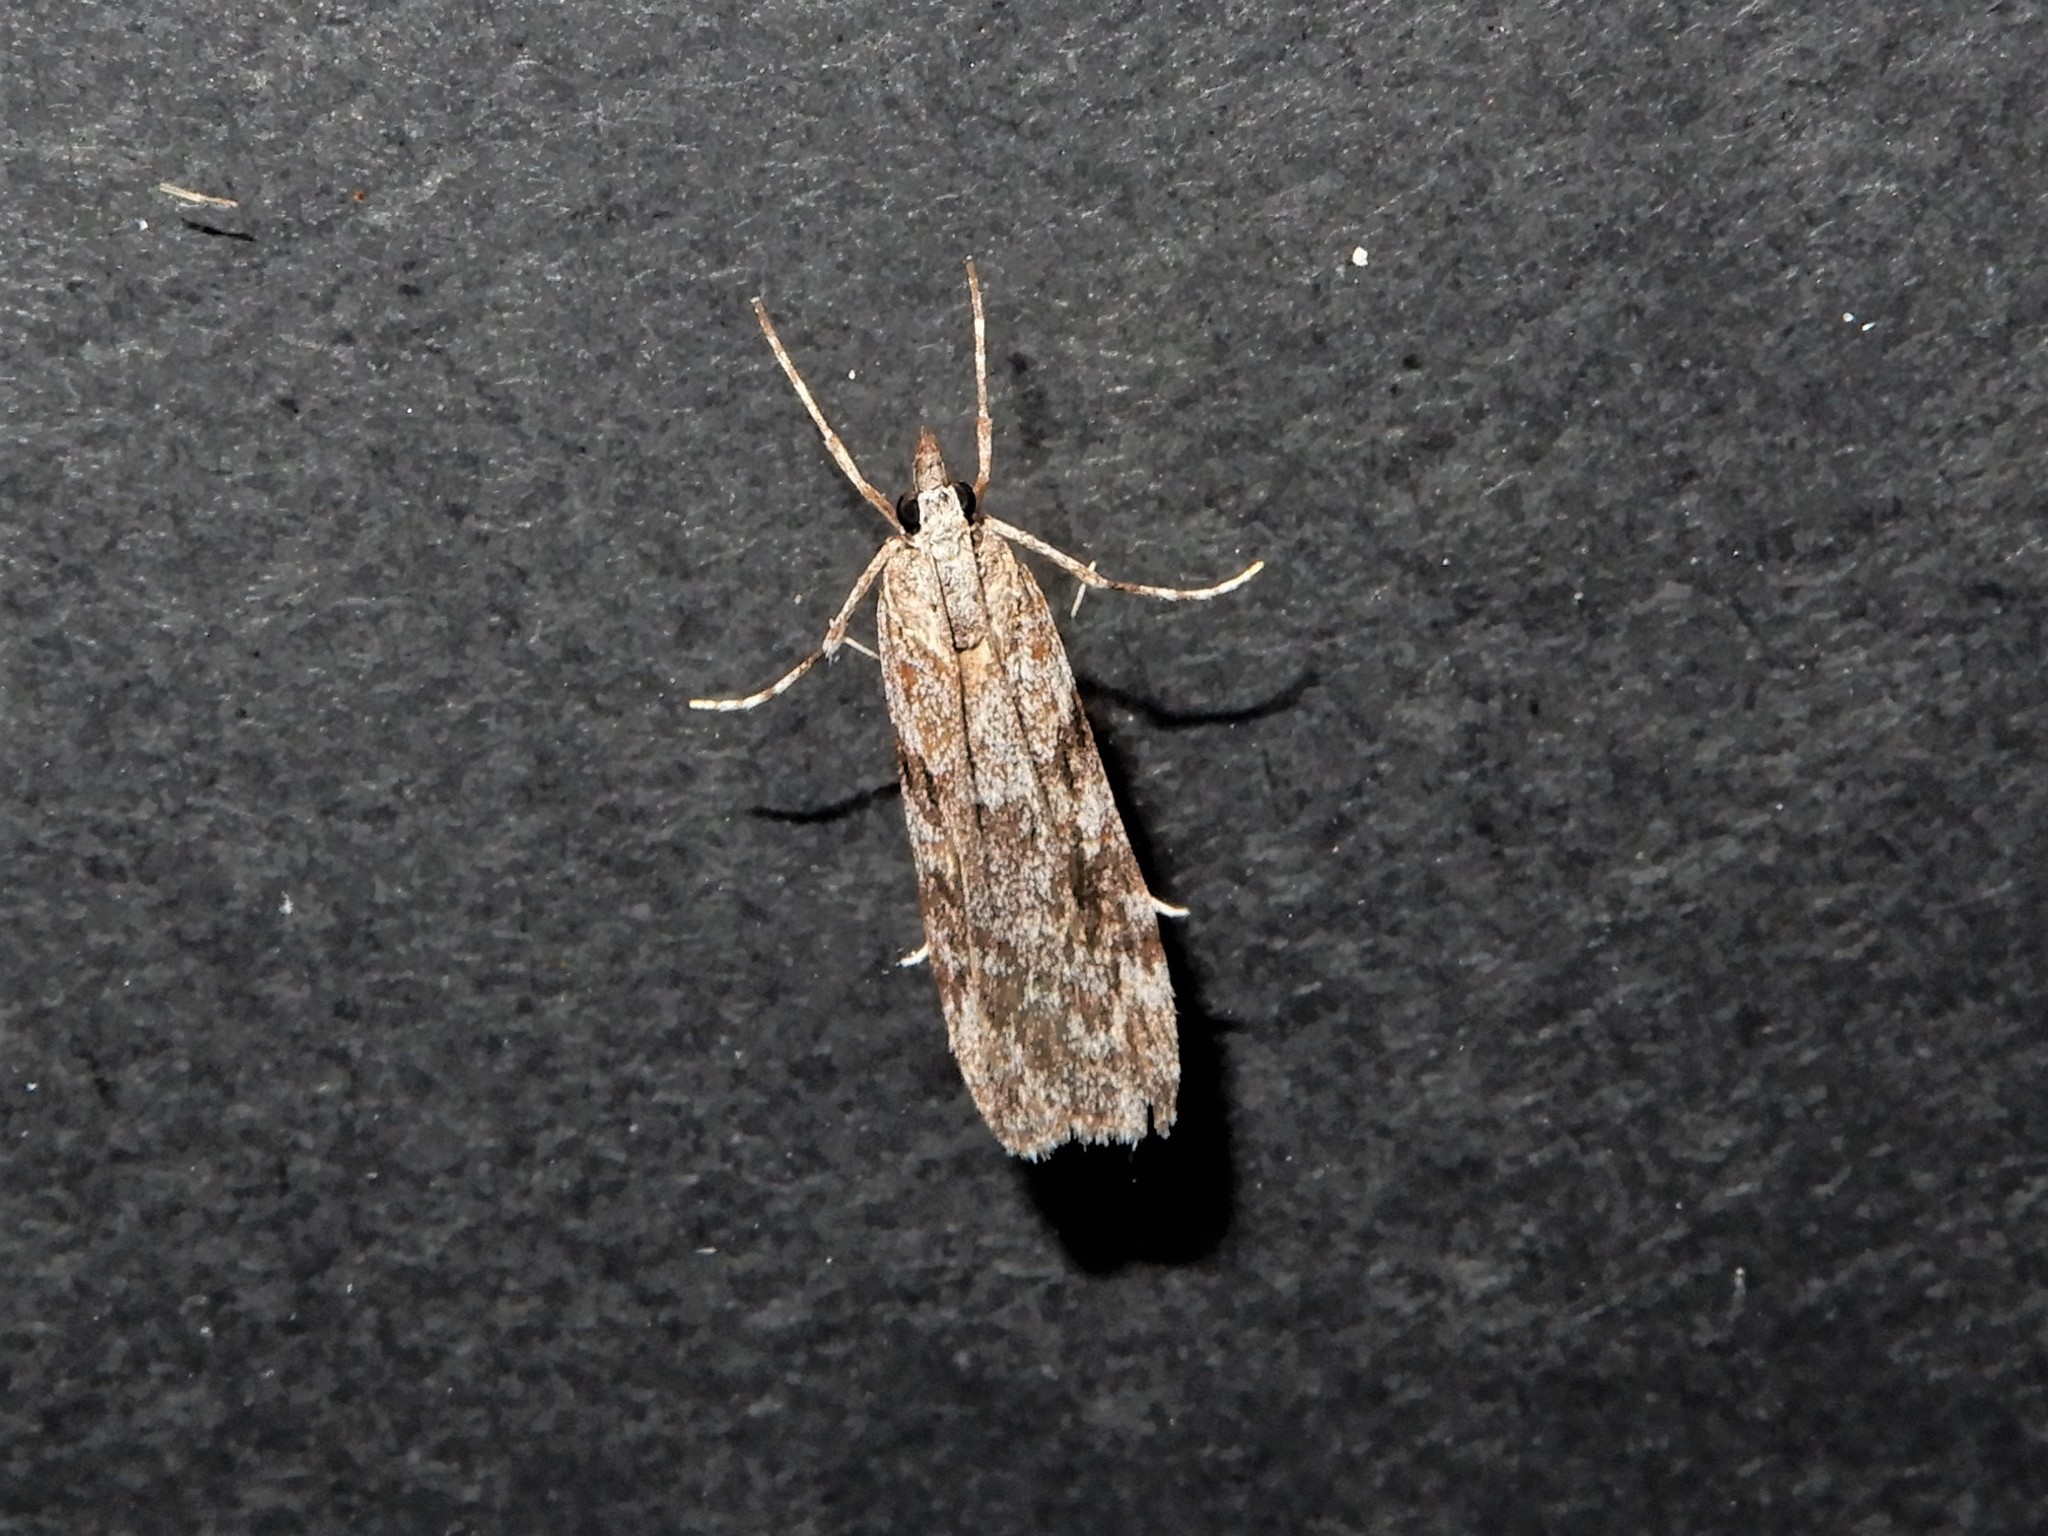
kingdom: Animalia
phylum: Arthropoda
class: Insecta
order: Lepidoptera
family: Crambidae
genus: Scoparia
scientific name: Scoparia halopis
